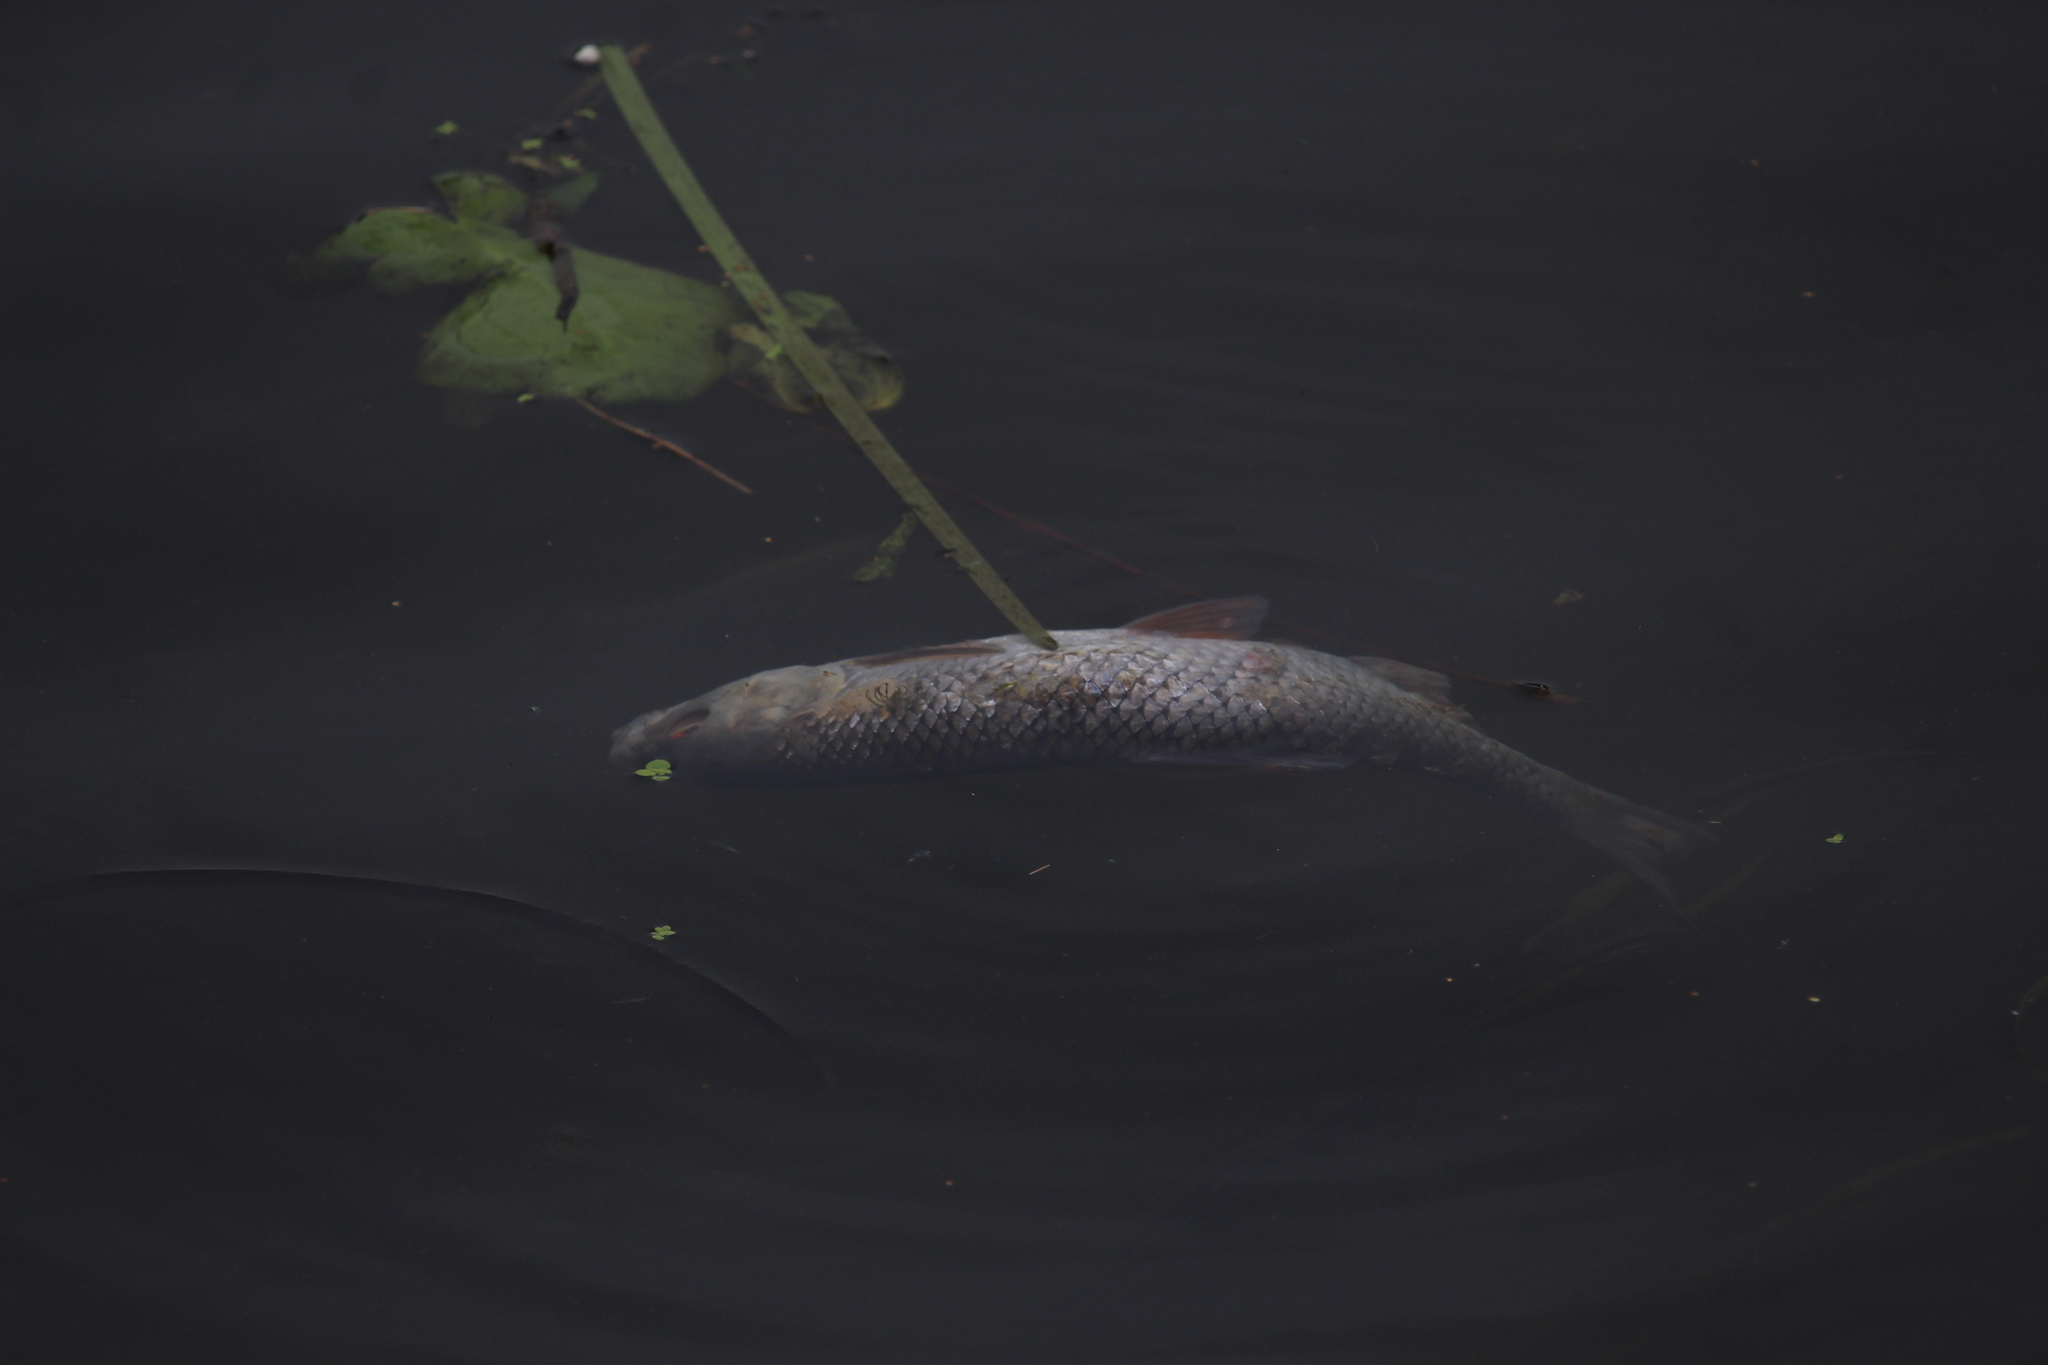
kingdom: Animalia
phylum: Chordata
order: Cypriniformes
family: Cyprinidae
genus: Rutilus
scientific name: Rutilus rutilus
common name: Roach
